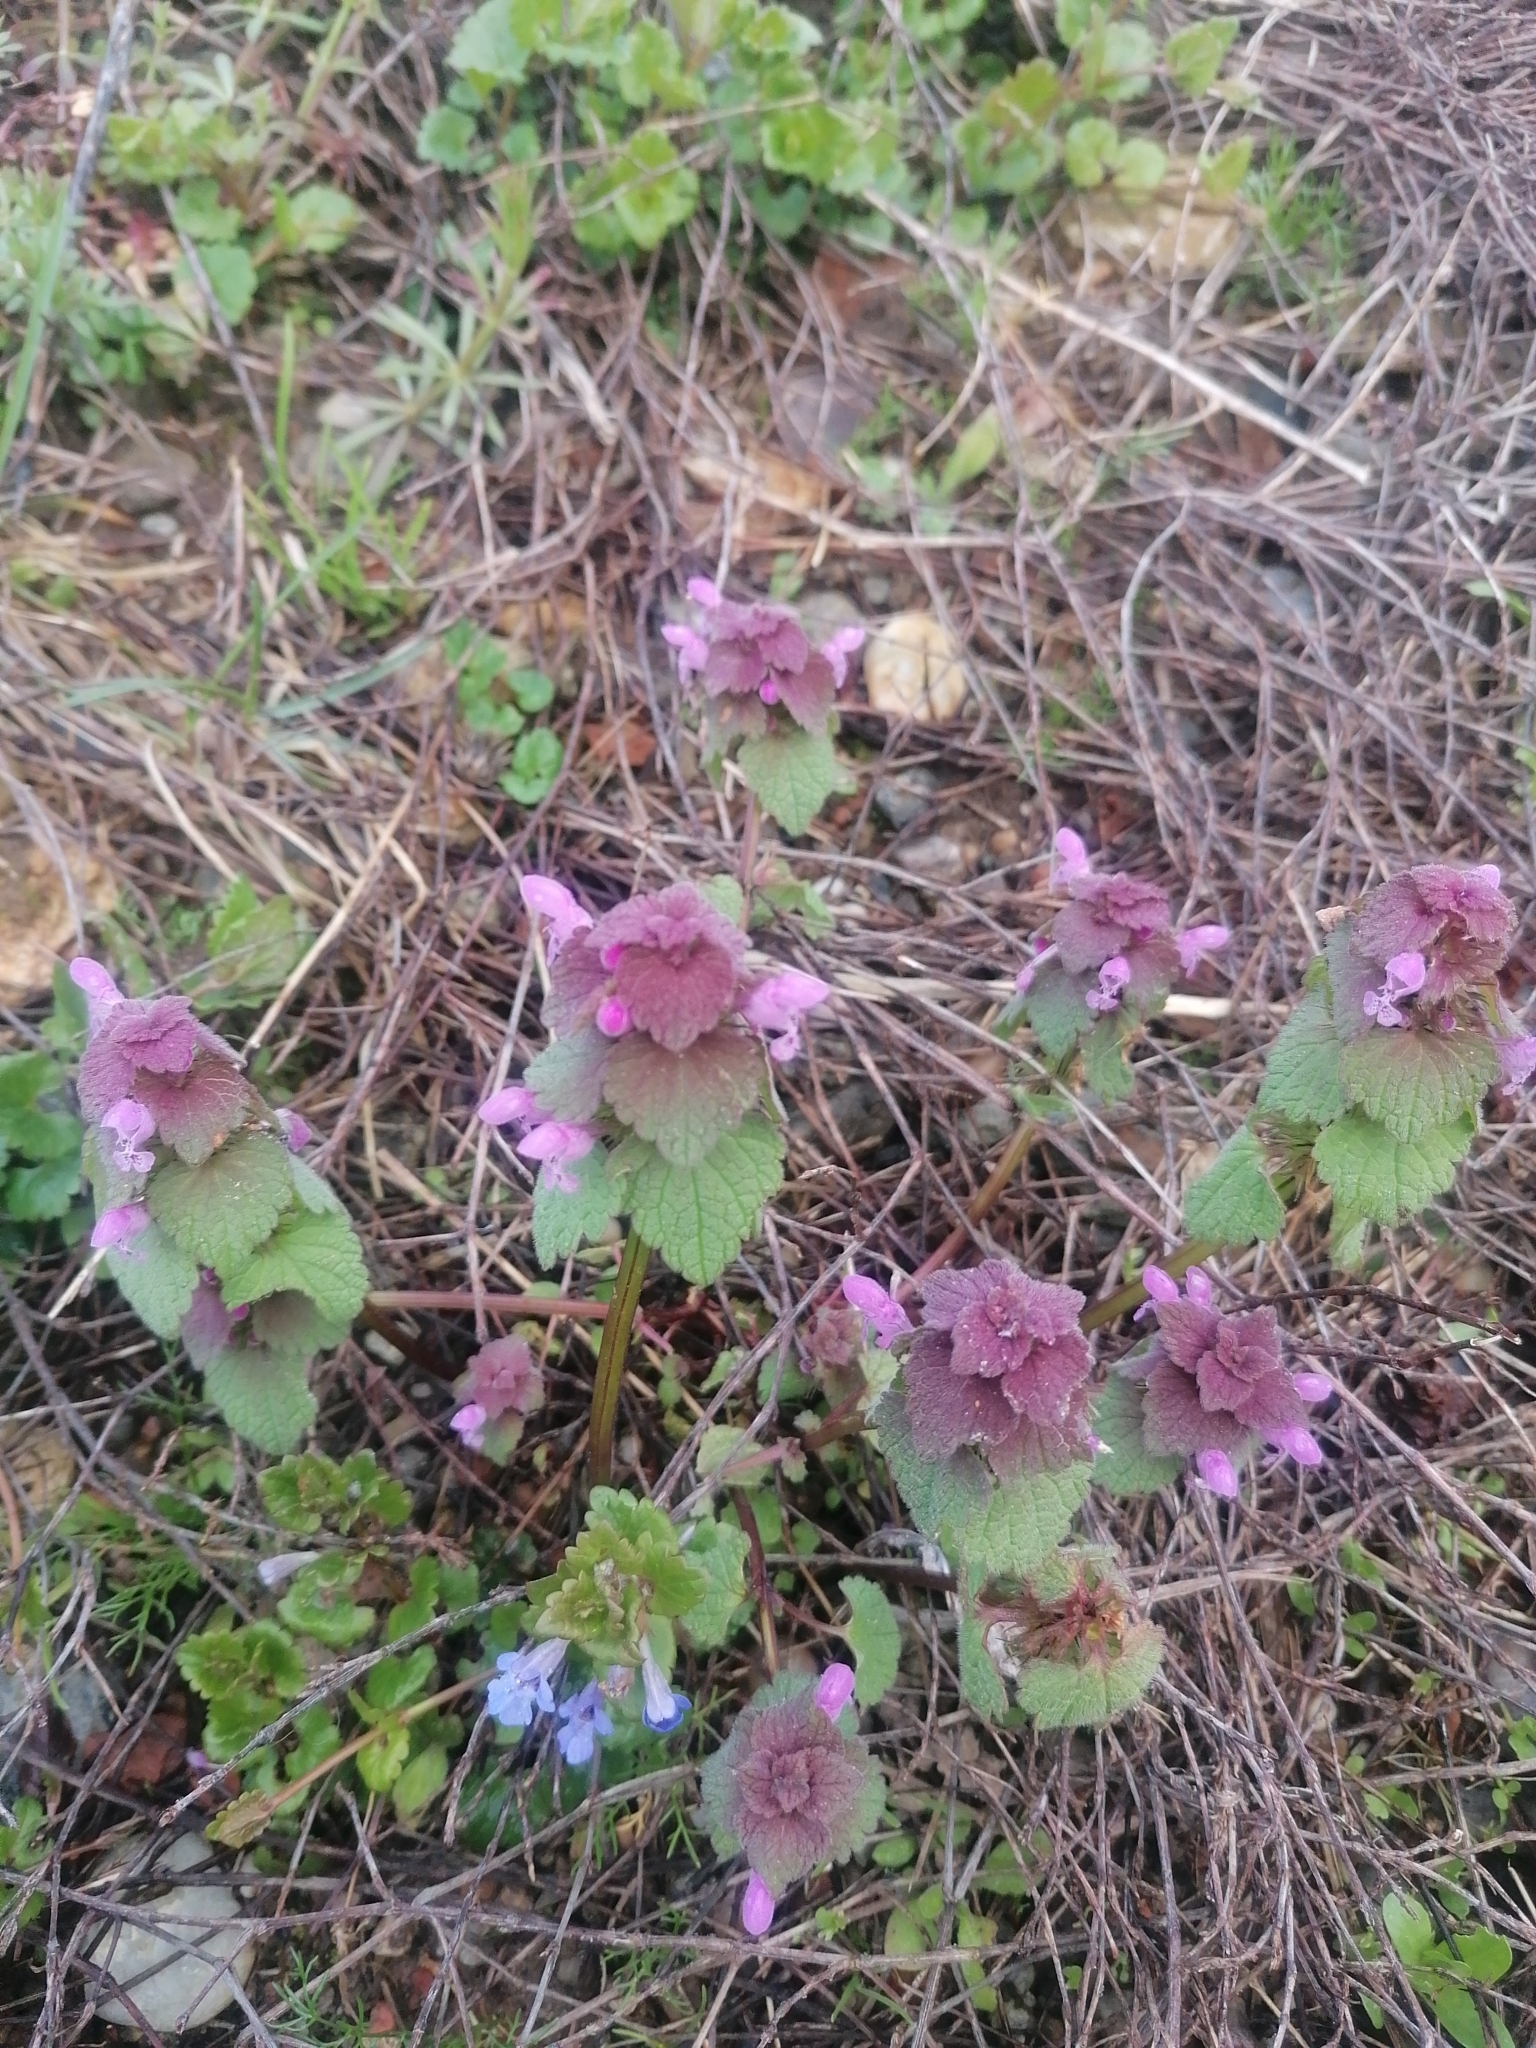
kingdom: Plantae
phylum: Tracheophyta
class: Magnoliopsida
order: Lamiales
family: Lamiaceae
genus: Lamium
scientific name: Lamium purpureum
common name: Red dead-nettle
